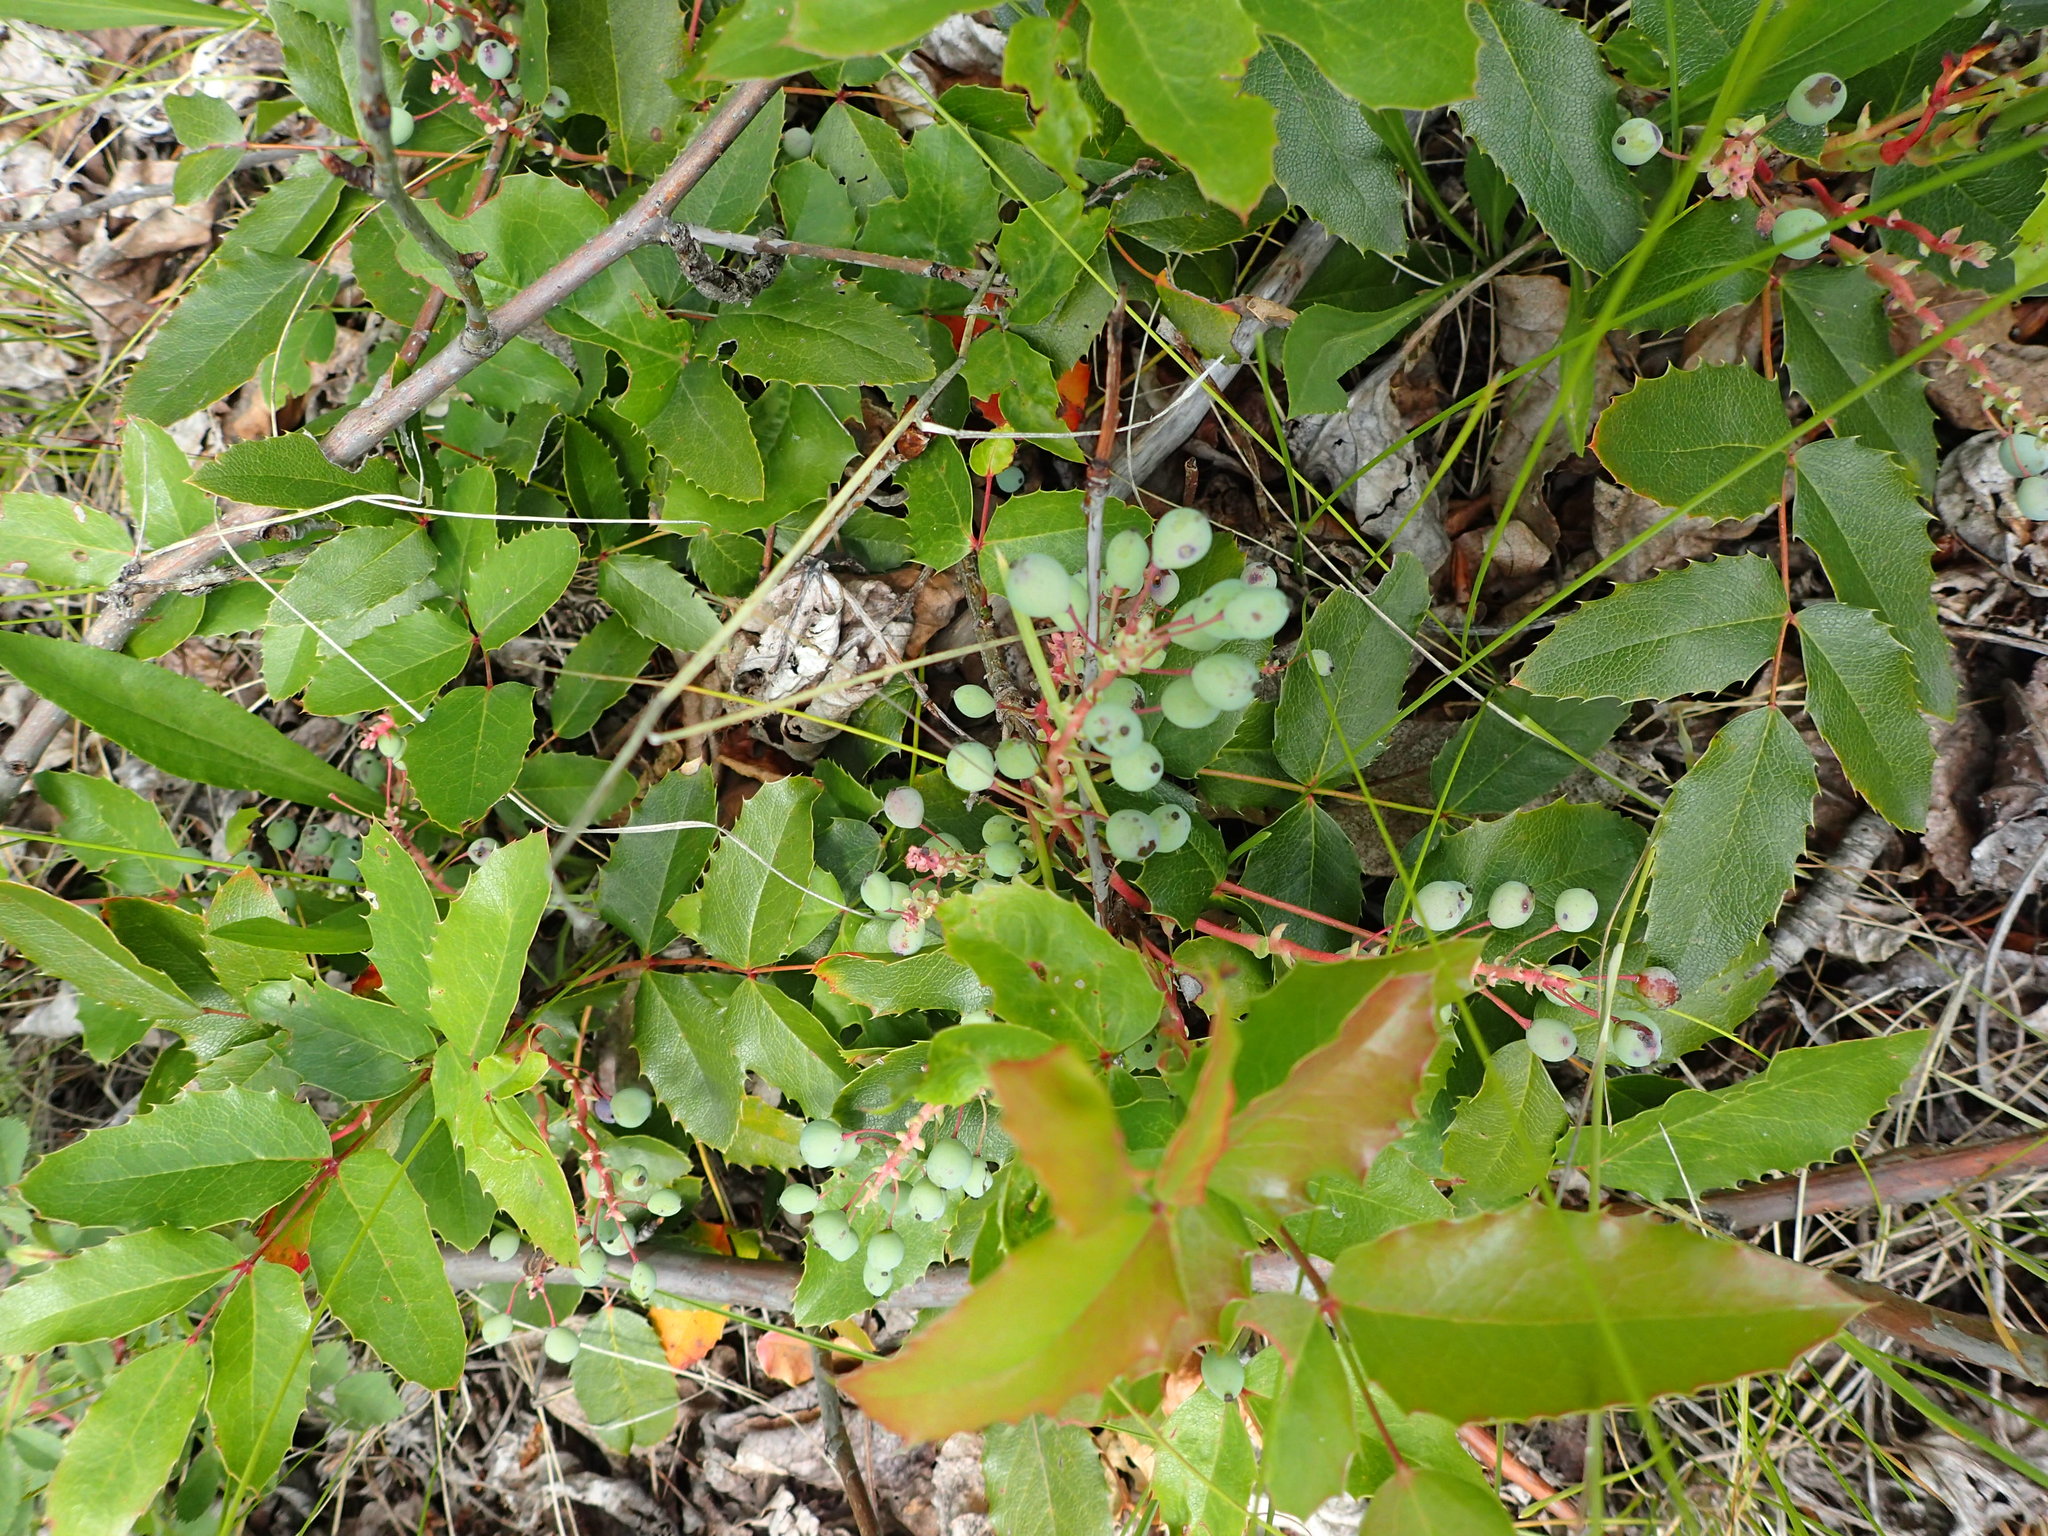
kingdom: Plantae
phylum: Tracheophyta
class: Magnoliopsida
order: Ranunculales
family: Berberidaceae
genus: Mahonia
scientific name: Mahonia aquifolium
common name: Oregon-grape
